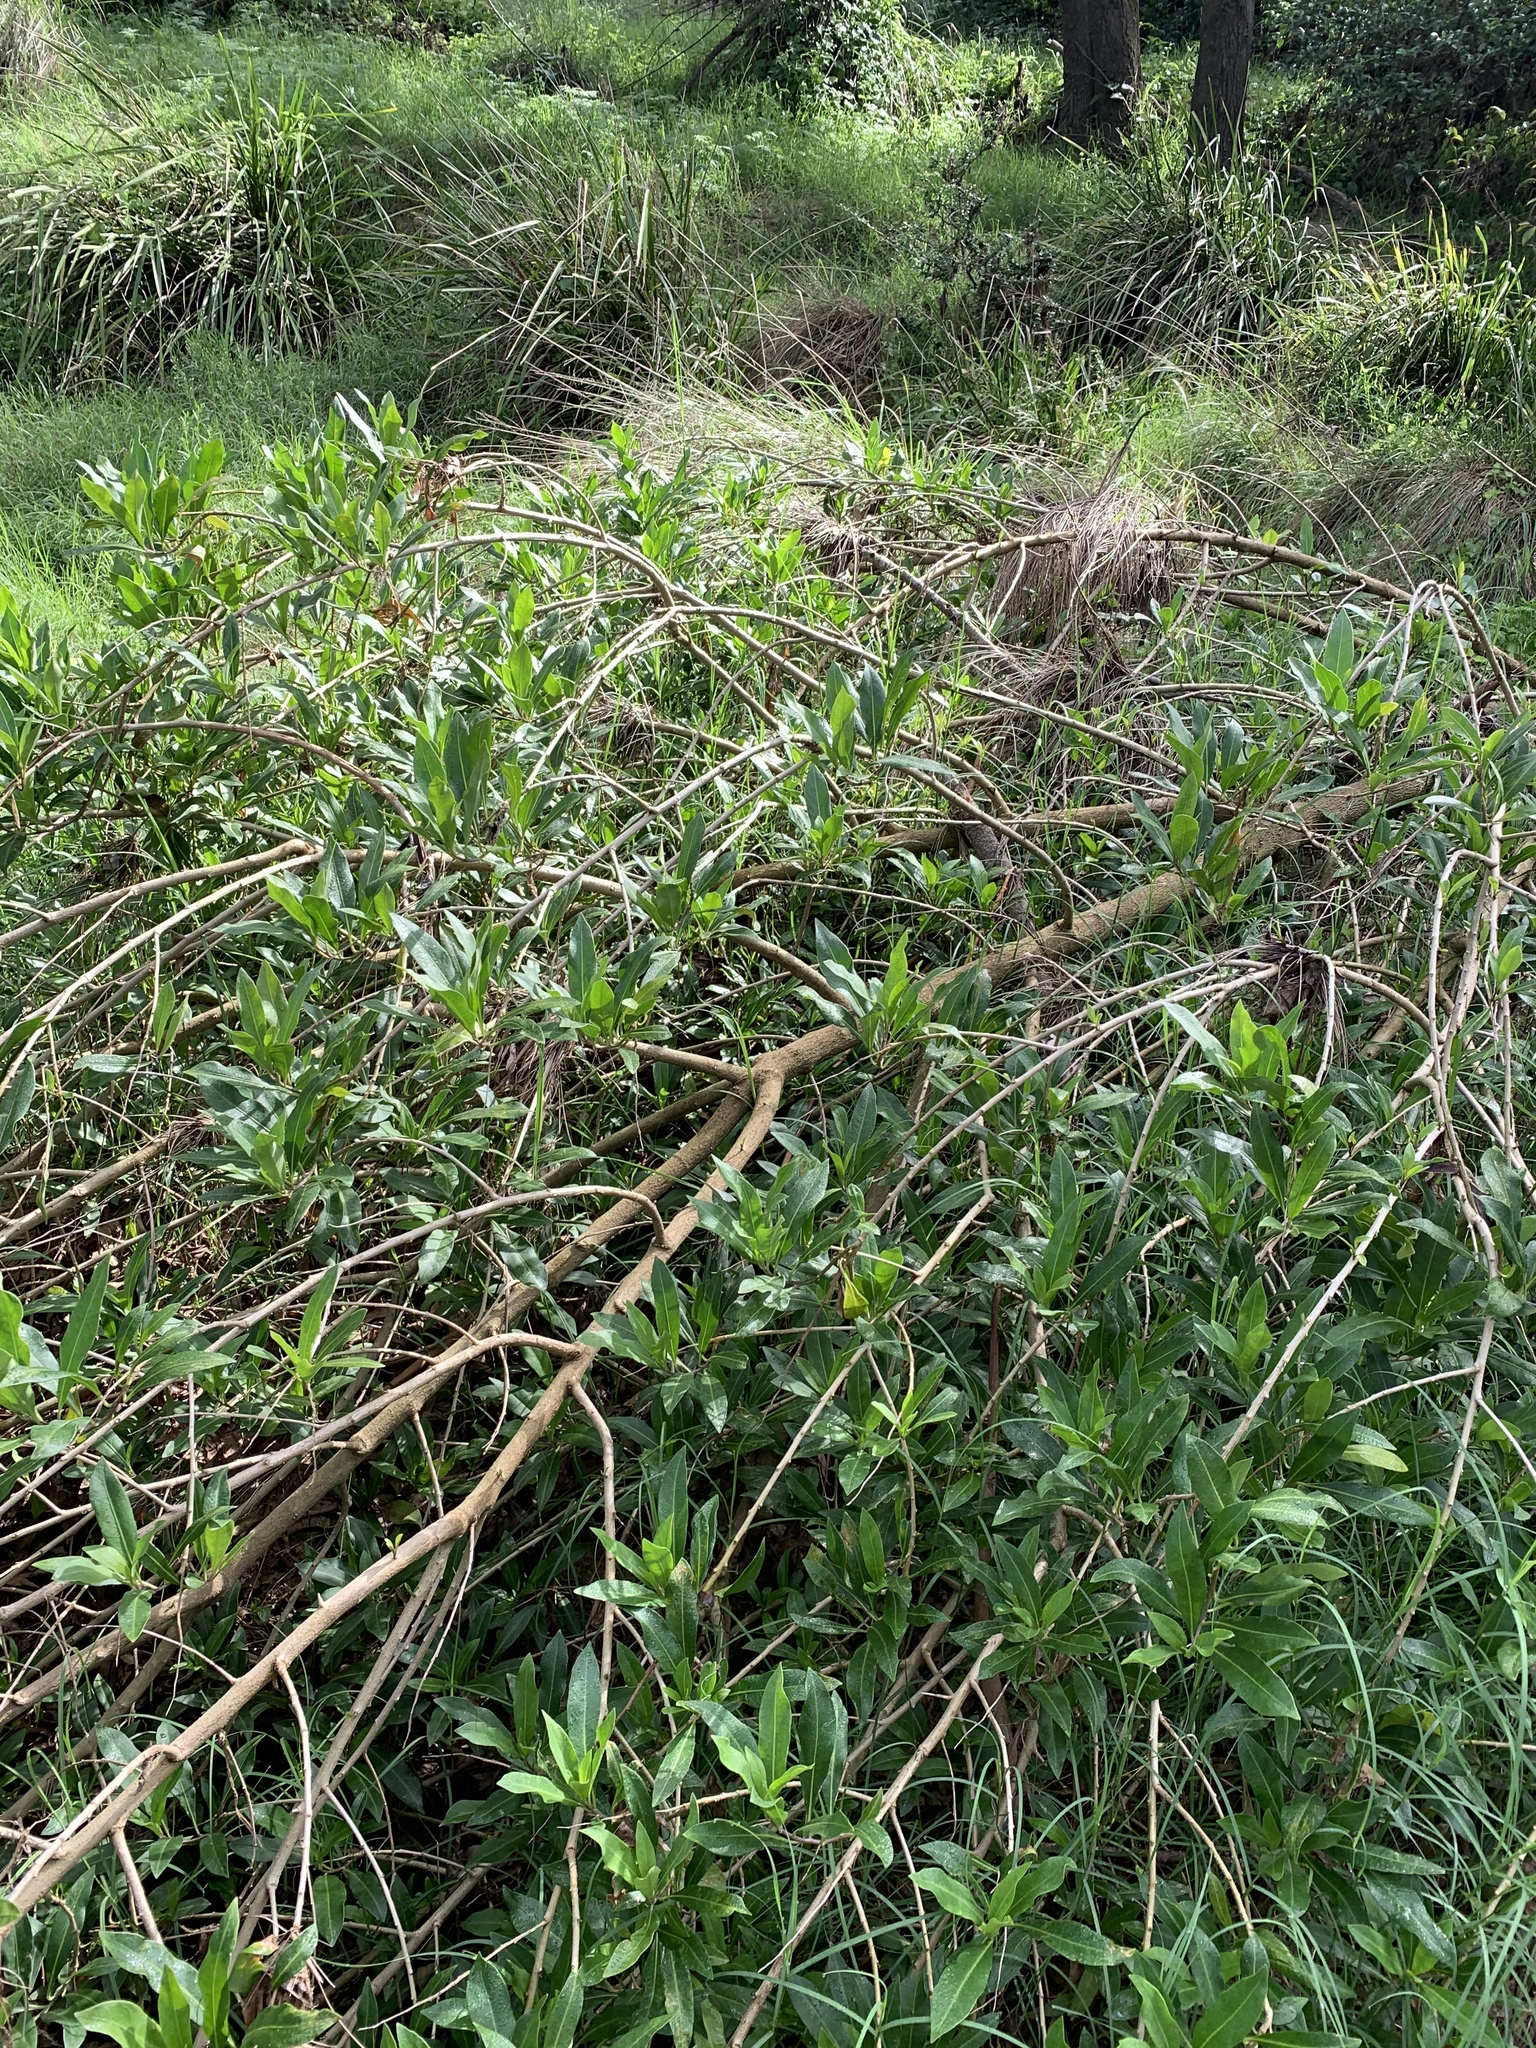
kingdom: Plantae
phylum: Tracheophyta
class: Magnoliopsida
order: Solanales
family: Solanaceae
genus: Duboisia
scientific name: Duboisia myoporoides
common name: Corkwoodtree
